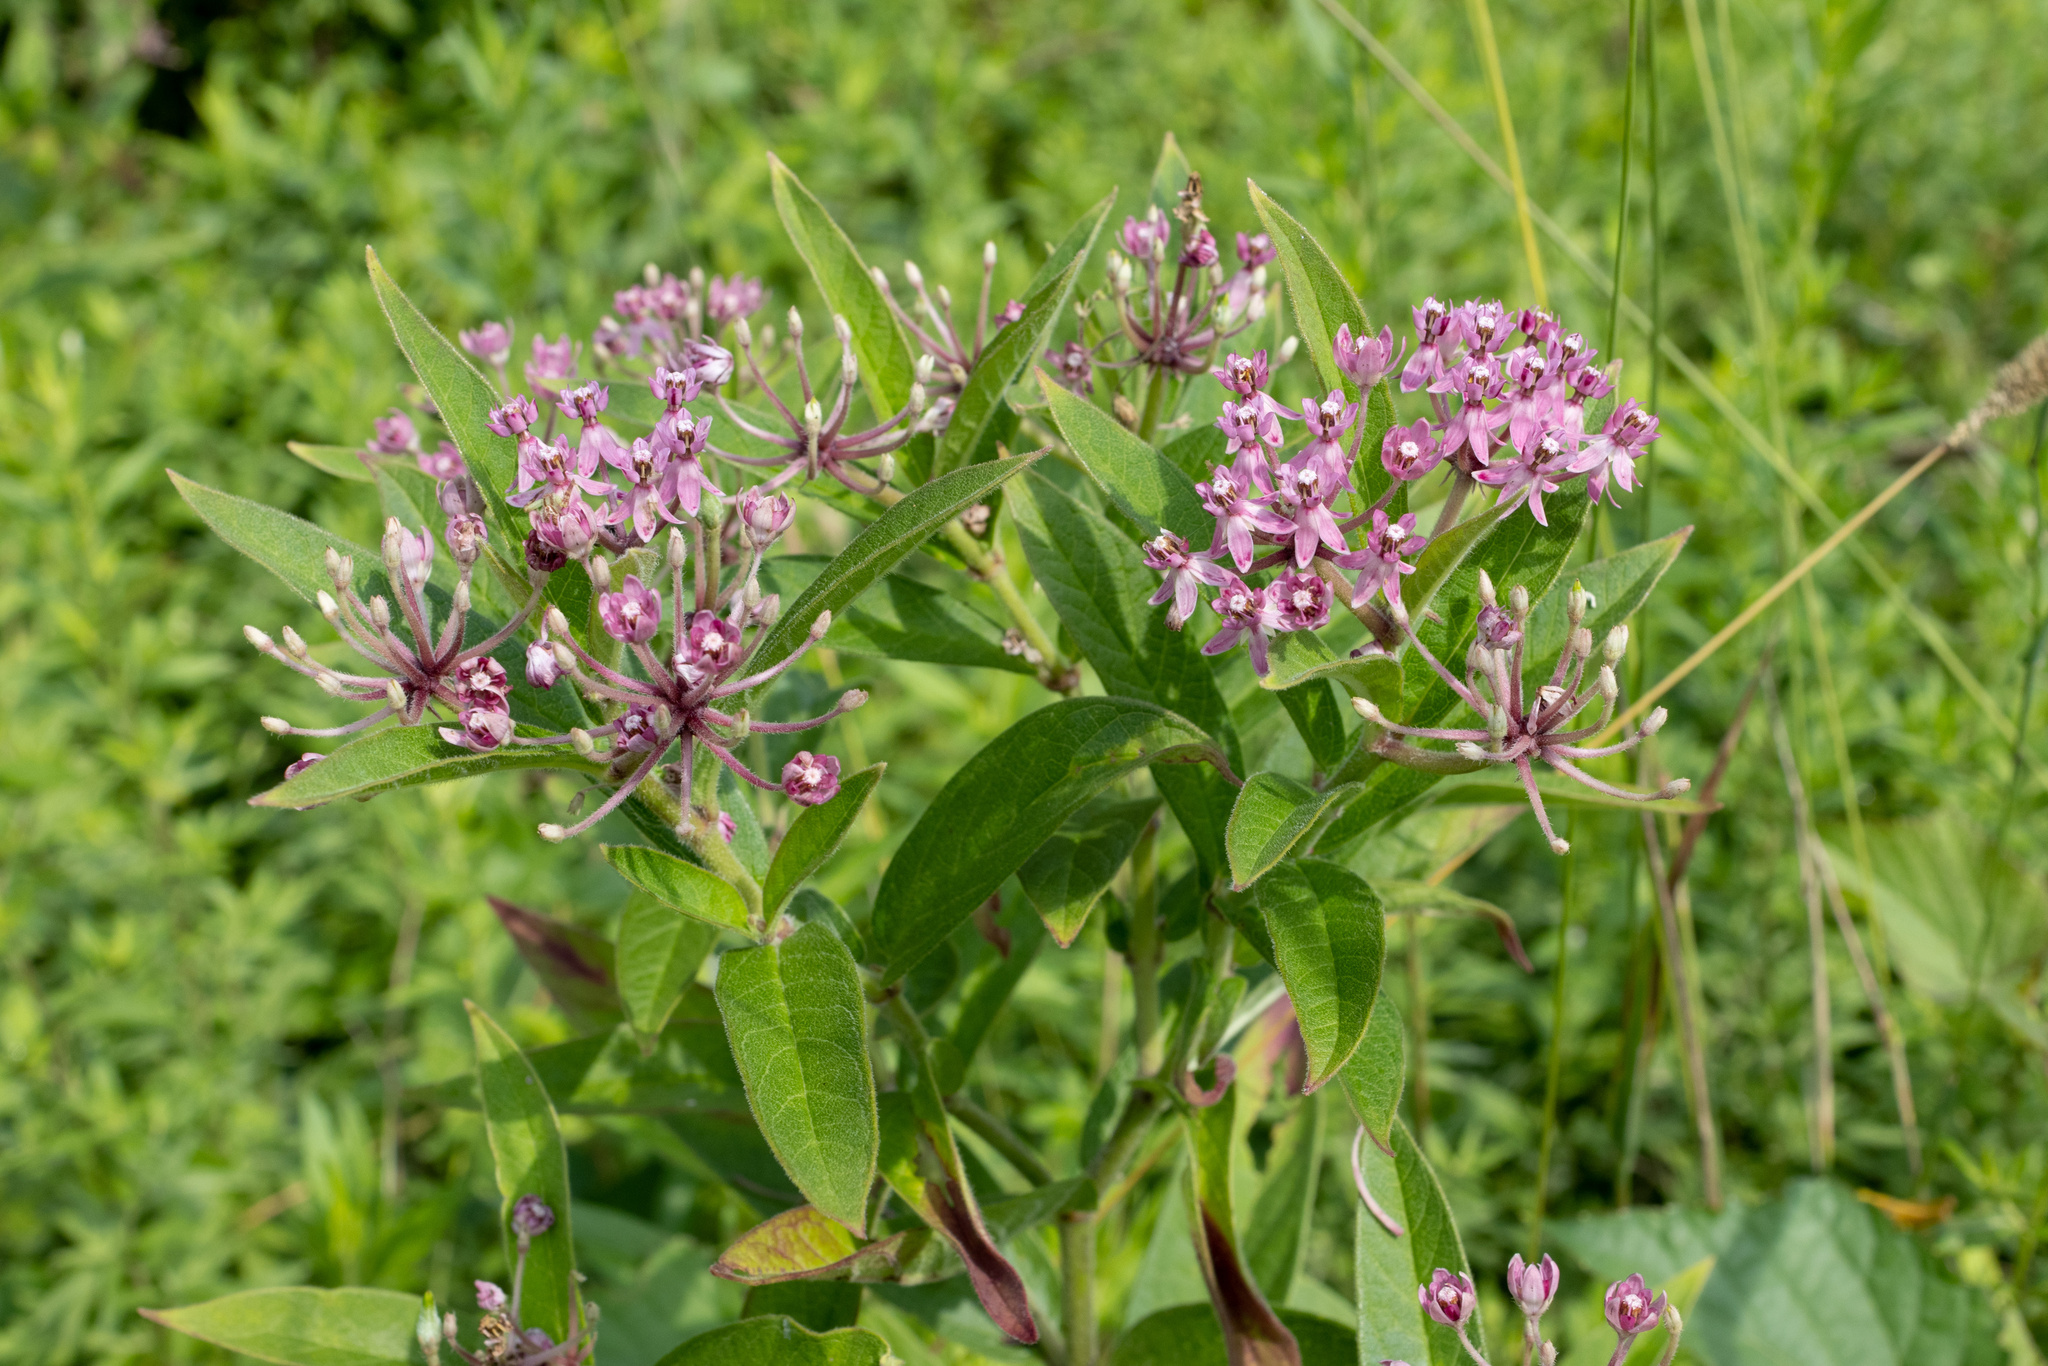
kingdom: Plantae
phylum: Tracheophyta
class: Magnoliopsida
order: Gentianales
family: Apocynaceae
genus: Asclepias
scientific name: Asclepias incarnata
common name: Swamp milkweed
